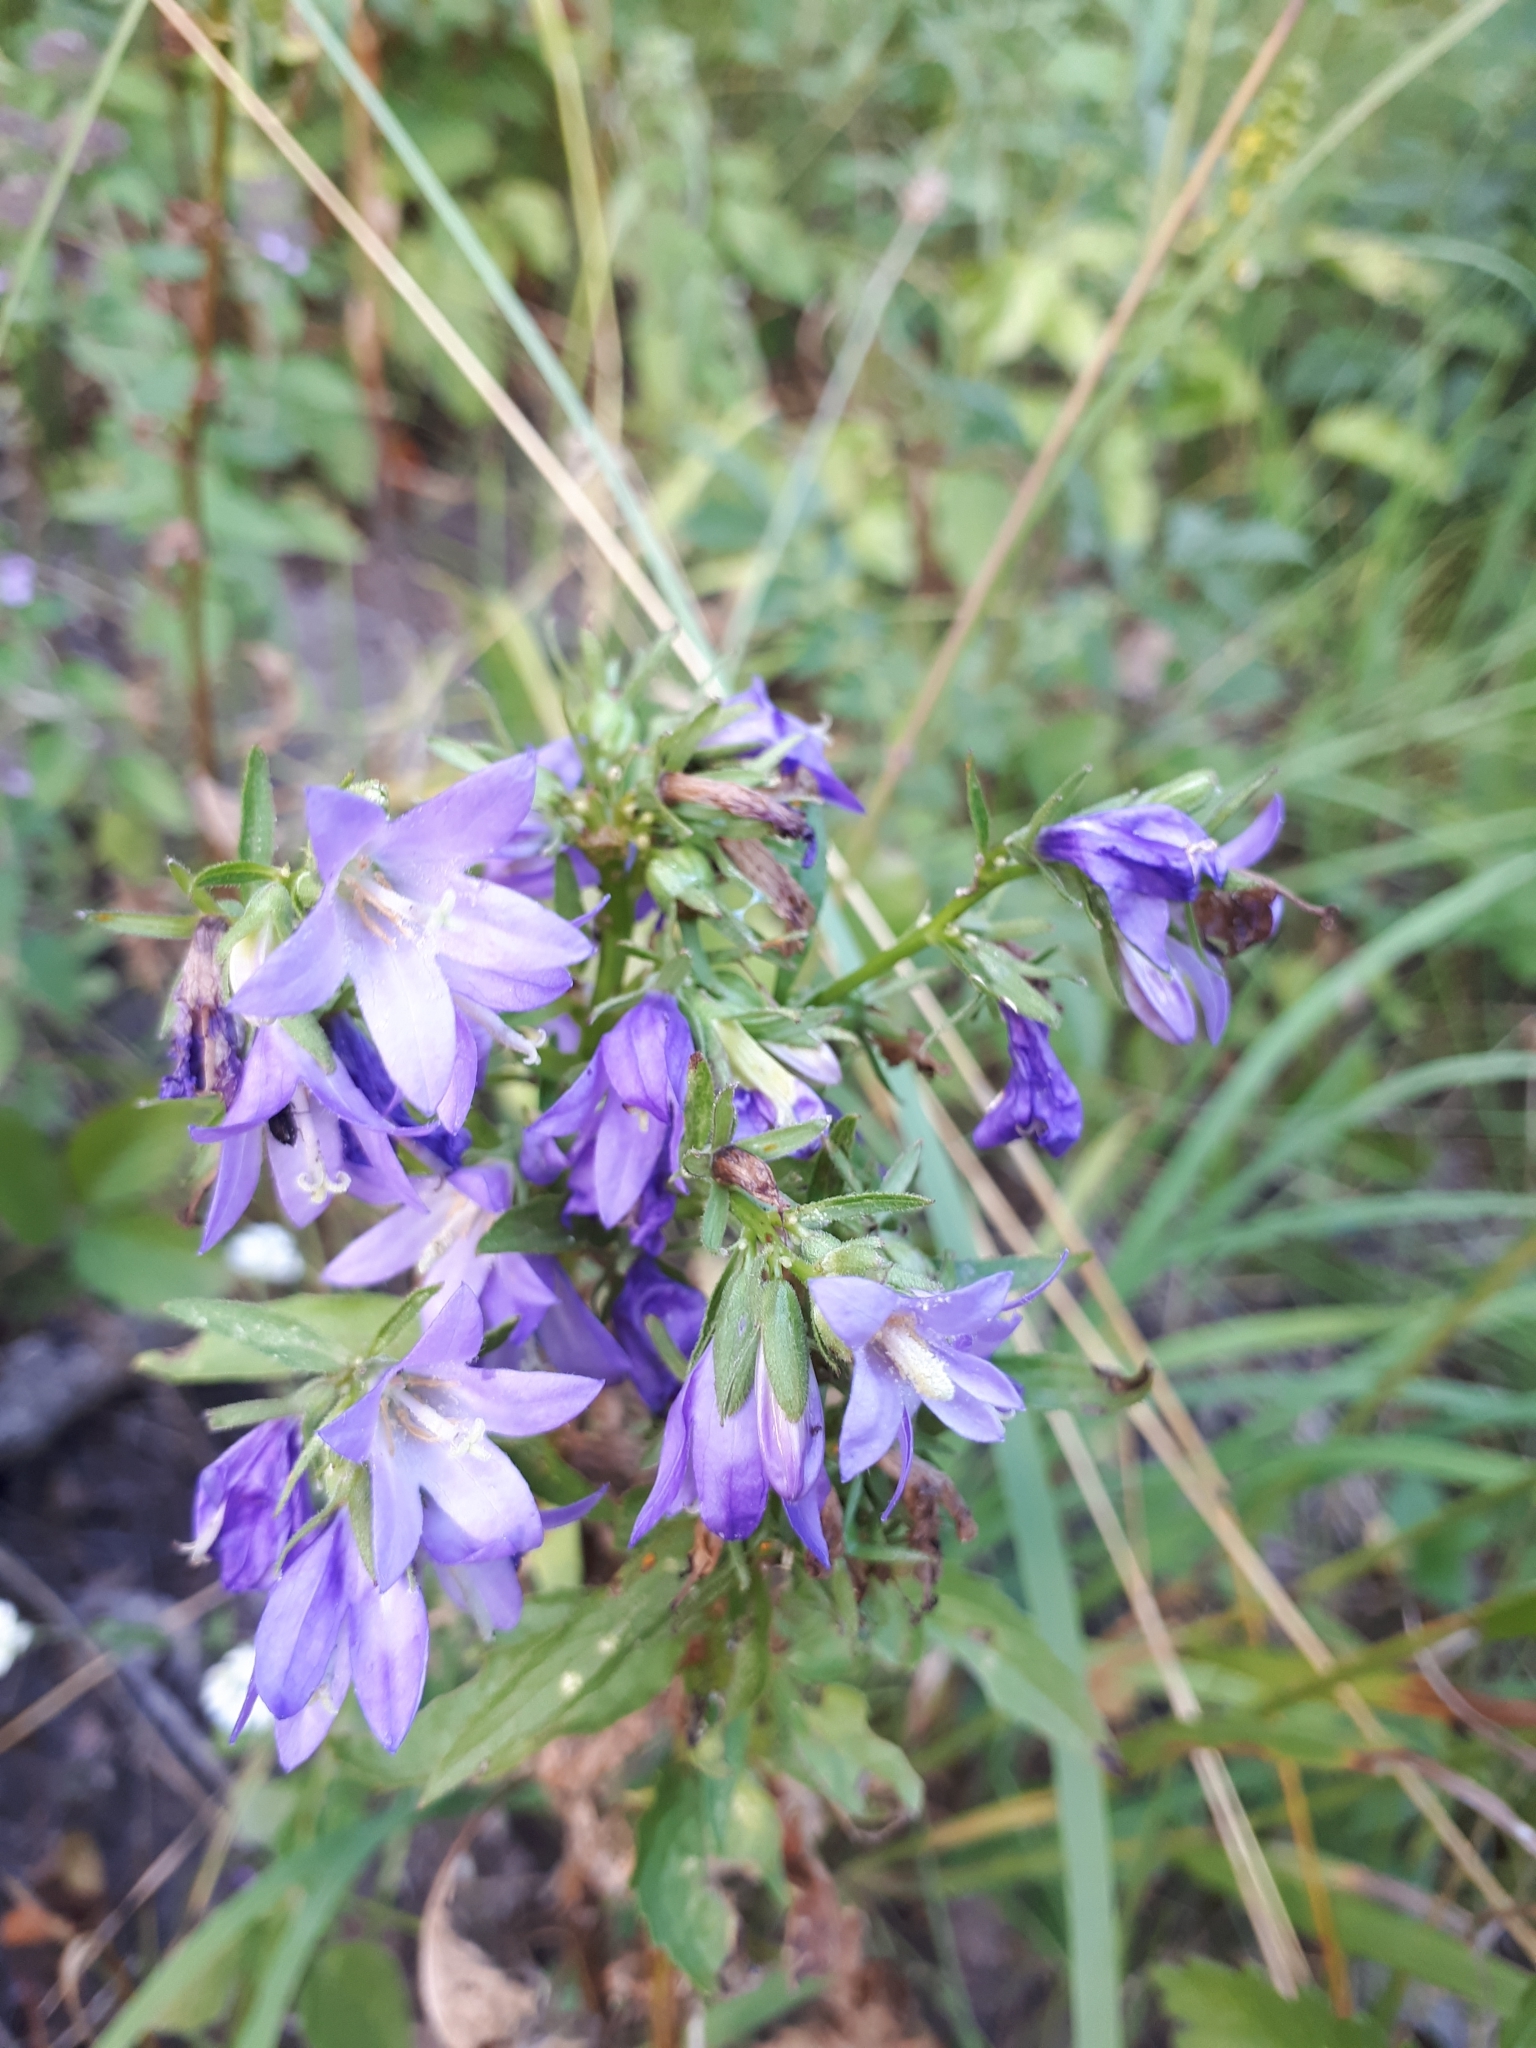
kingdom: Plantae
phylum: Tracheophyta
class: Magnoliopsida
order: Asterales
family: Campanulaceae
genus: Campanula
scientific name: Campanula glomerata
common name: Clustered bellflower
